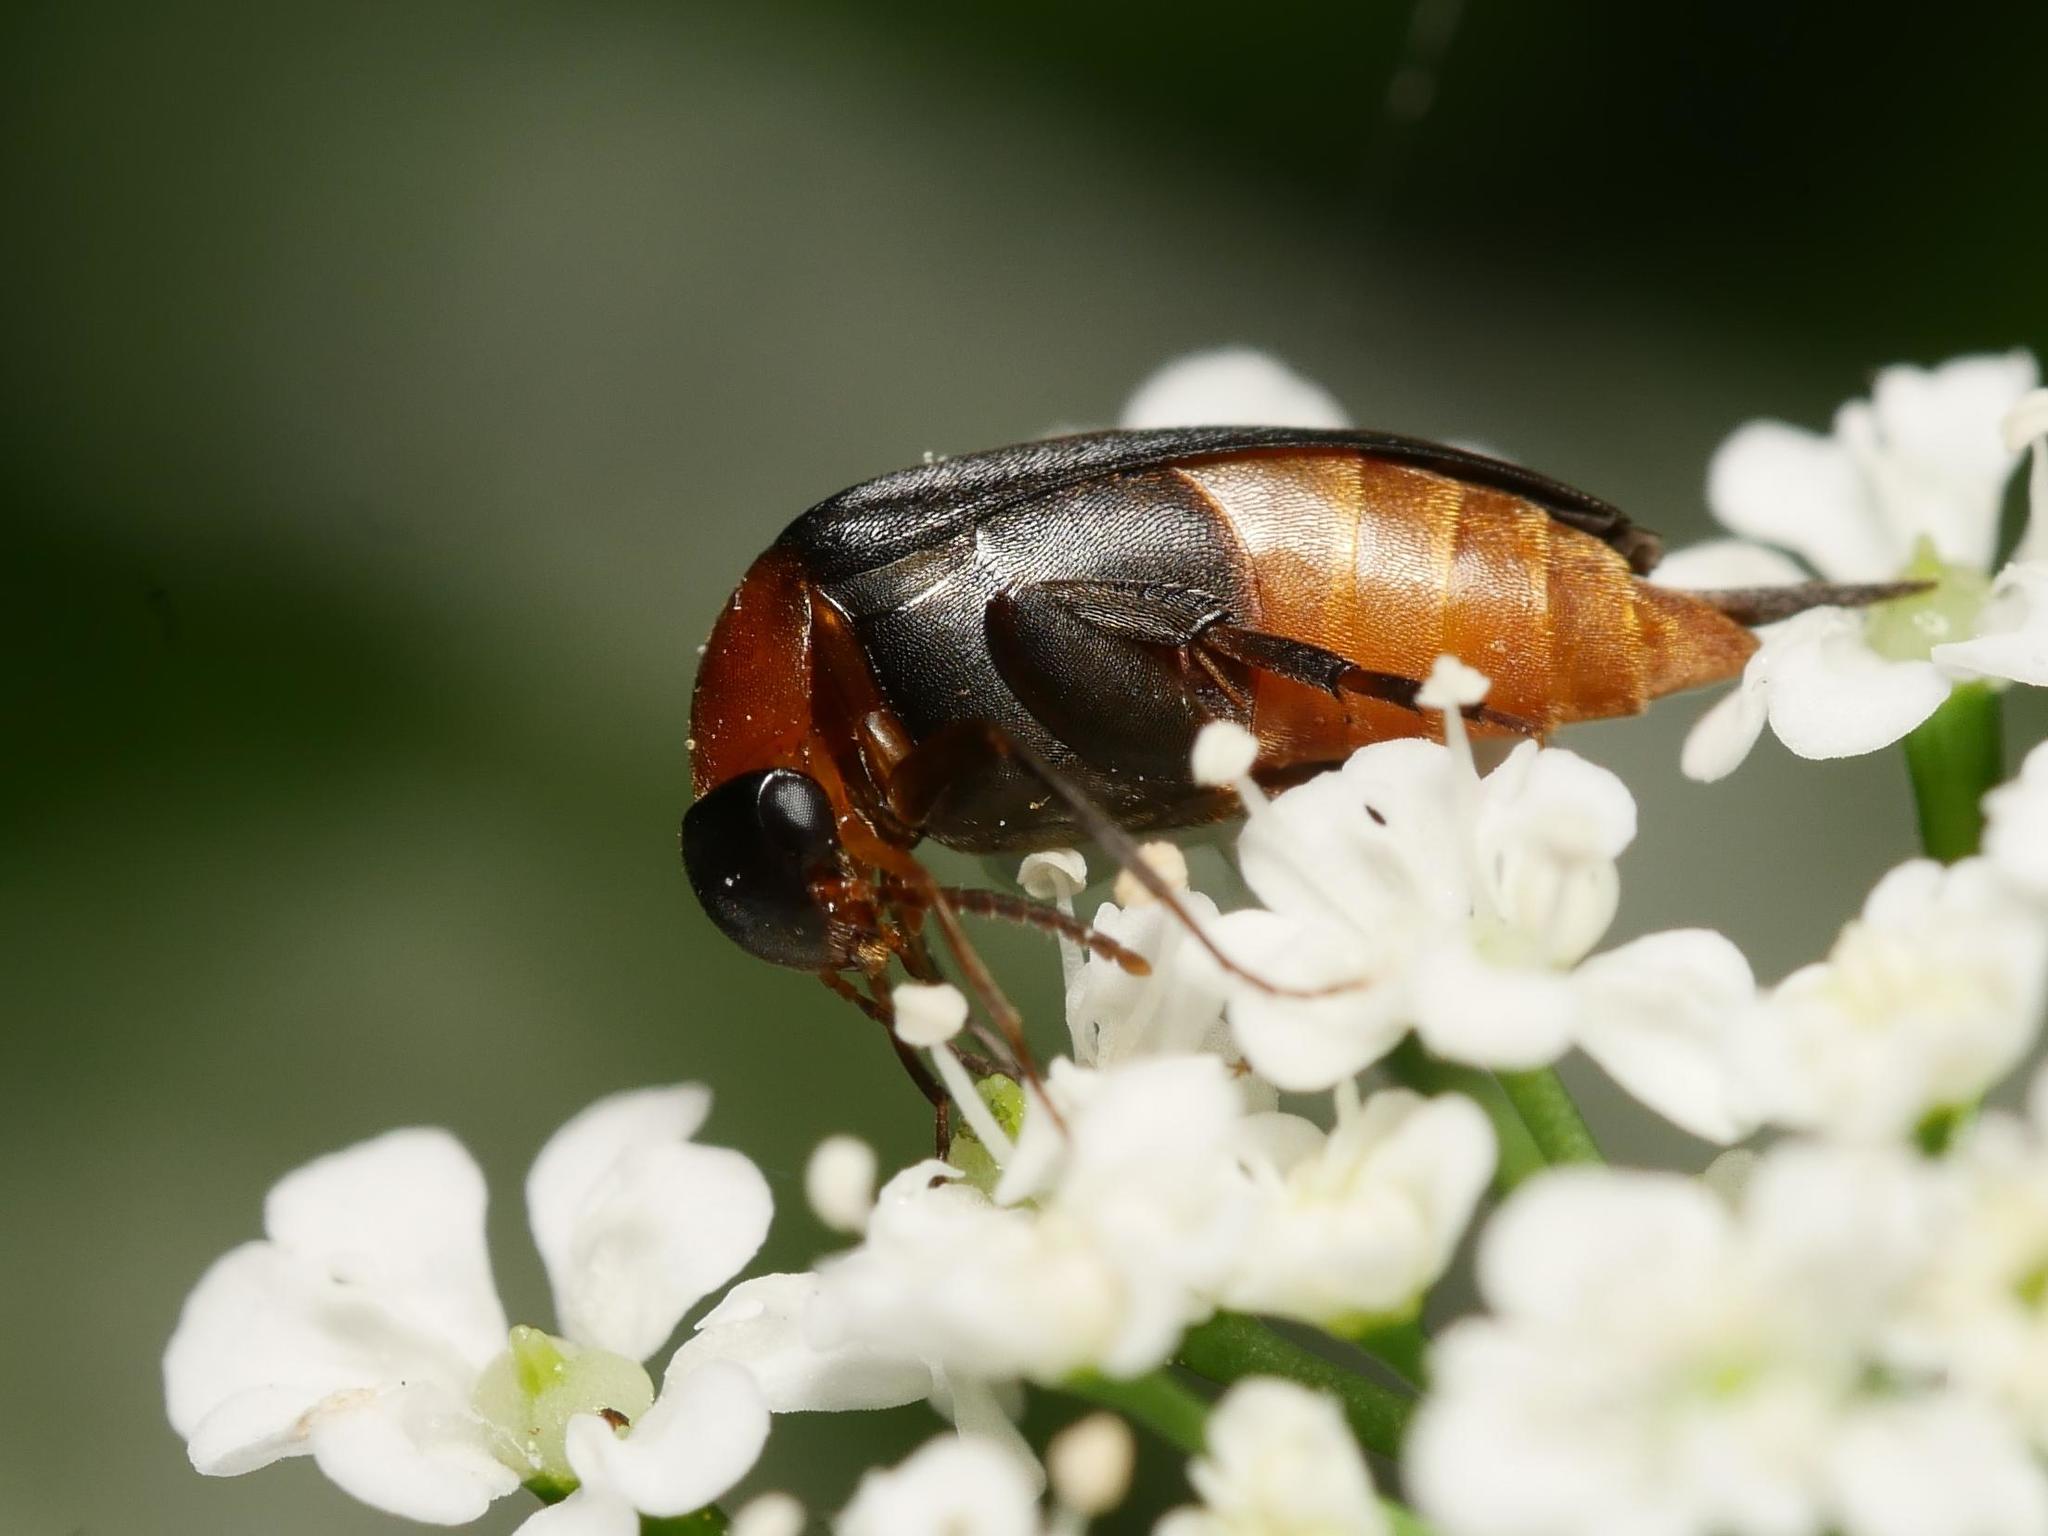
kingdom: Animalia
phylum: Arthropoda
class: Insecta
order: Coleoptera
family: Mordellidae
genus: Mordellochroa
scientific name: Mordellochroa abdominalis
